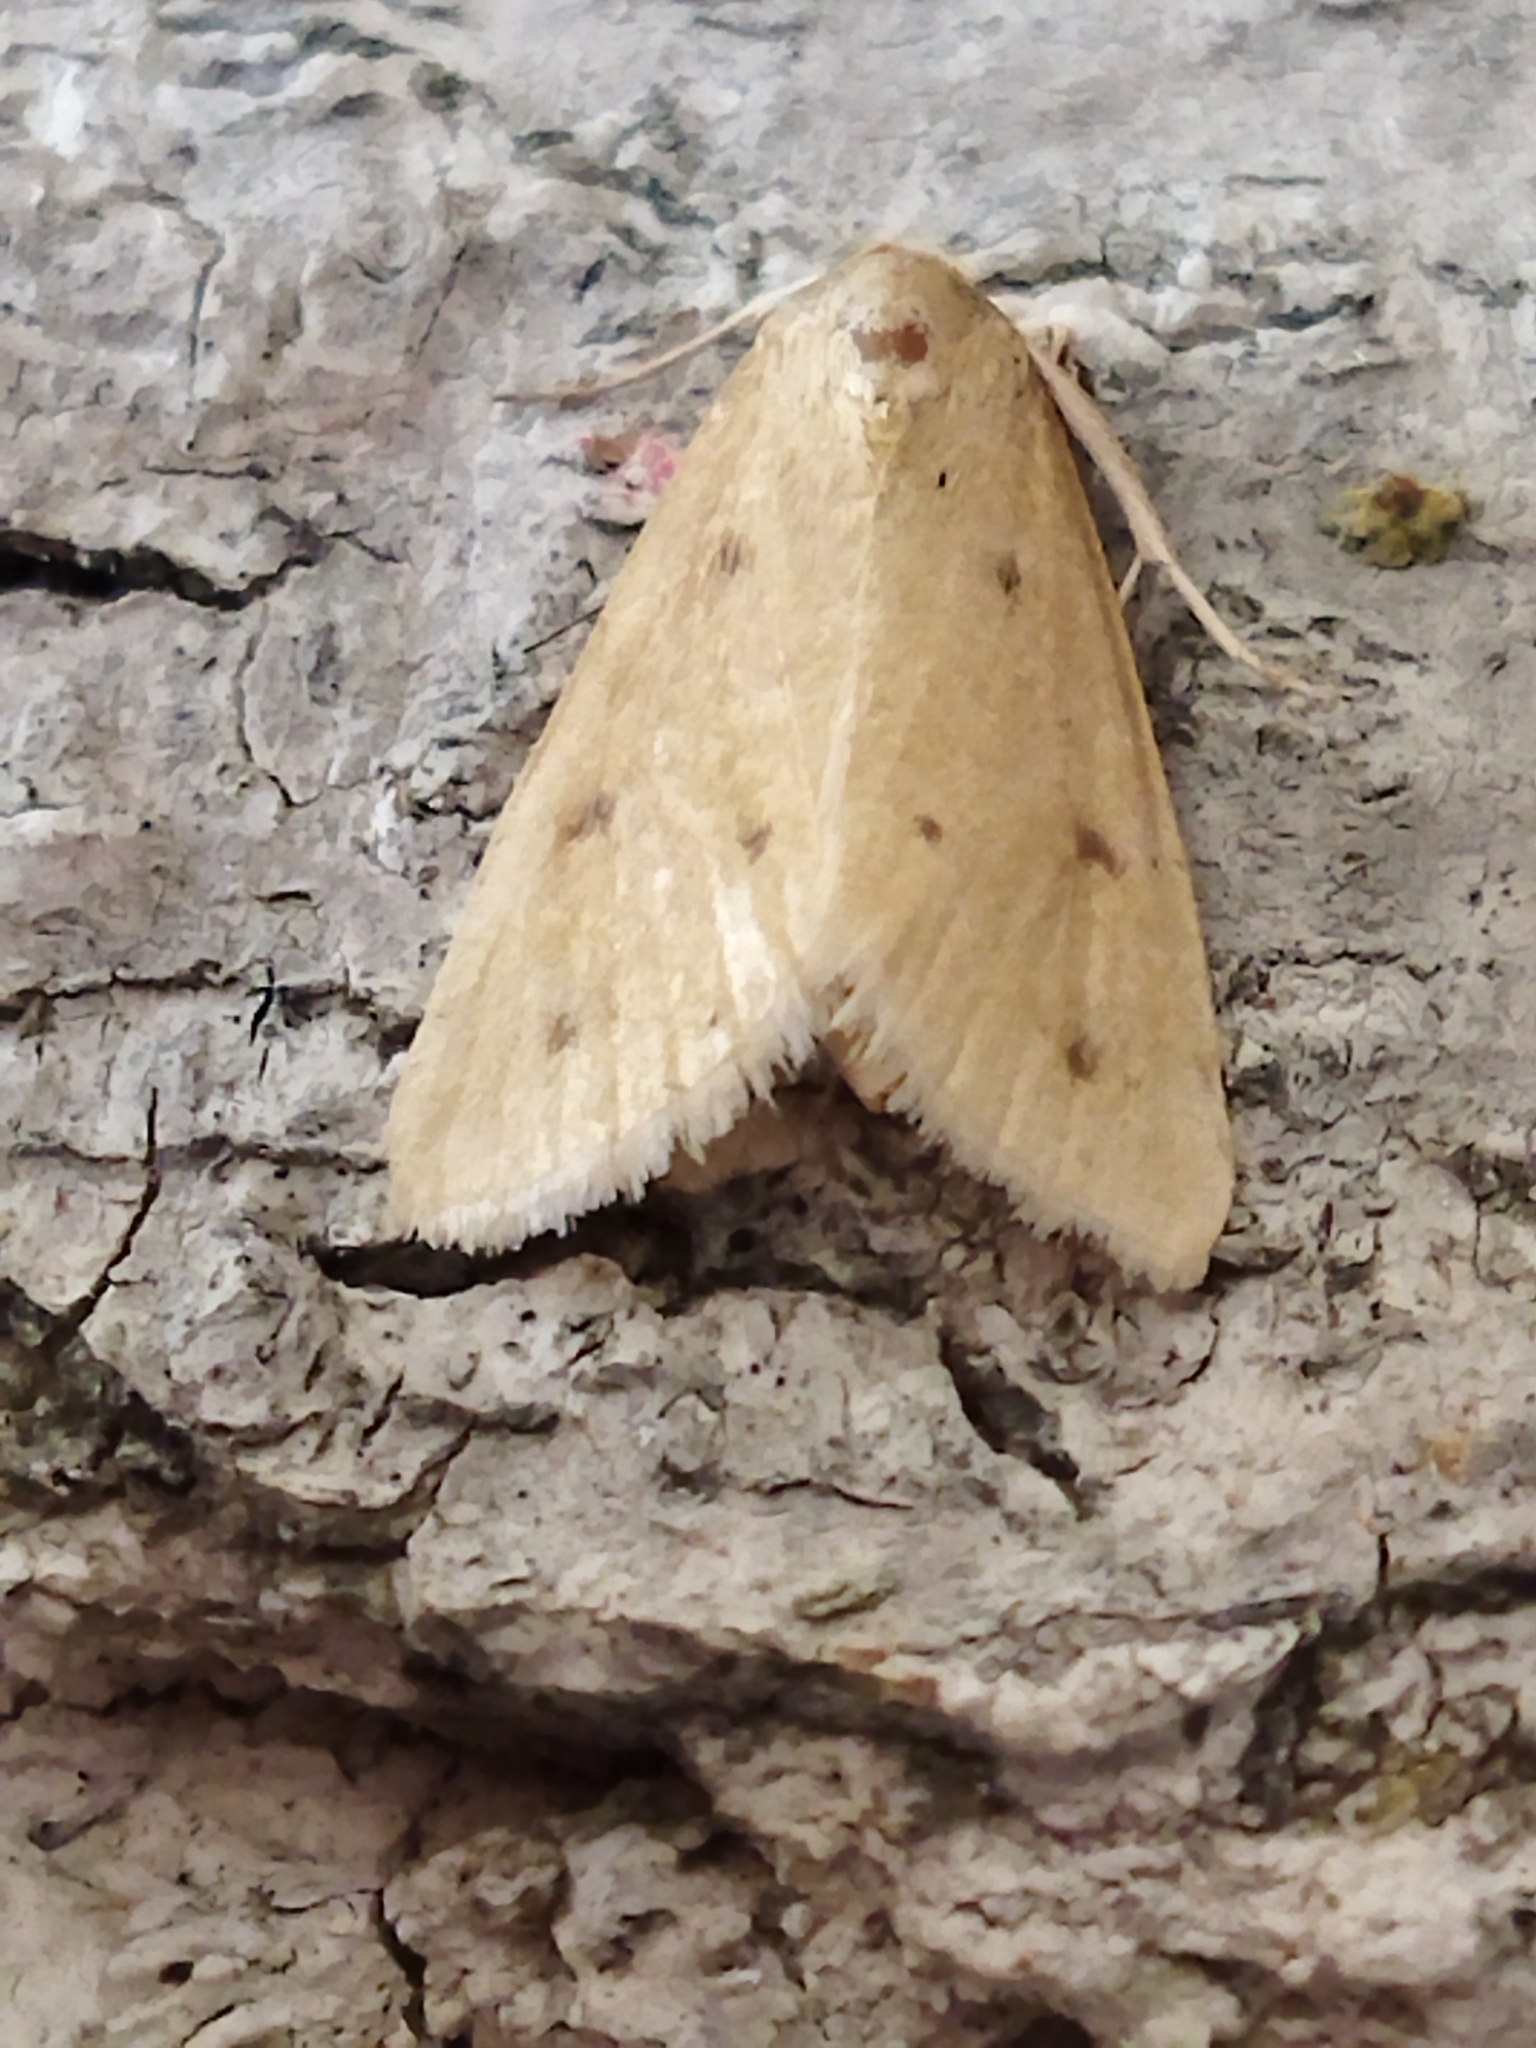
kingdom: Animalia
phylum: Arthropoda
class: Insecta
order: Lepidoptera
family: Crambidae
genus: Achyra
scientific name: Achyra nudalis
